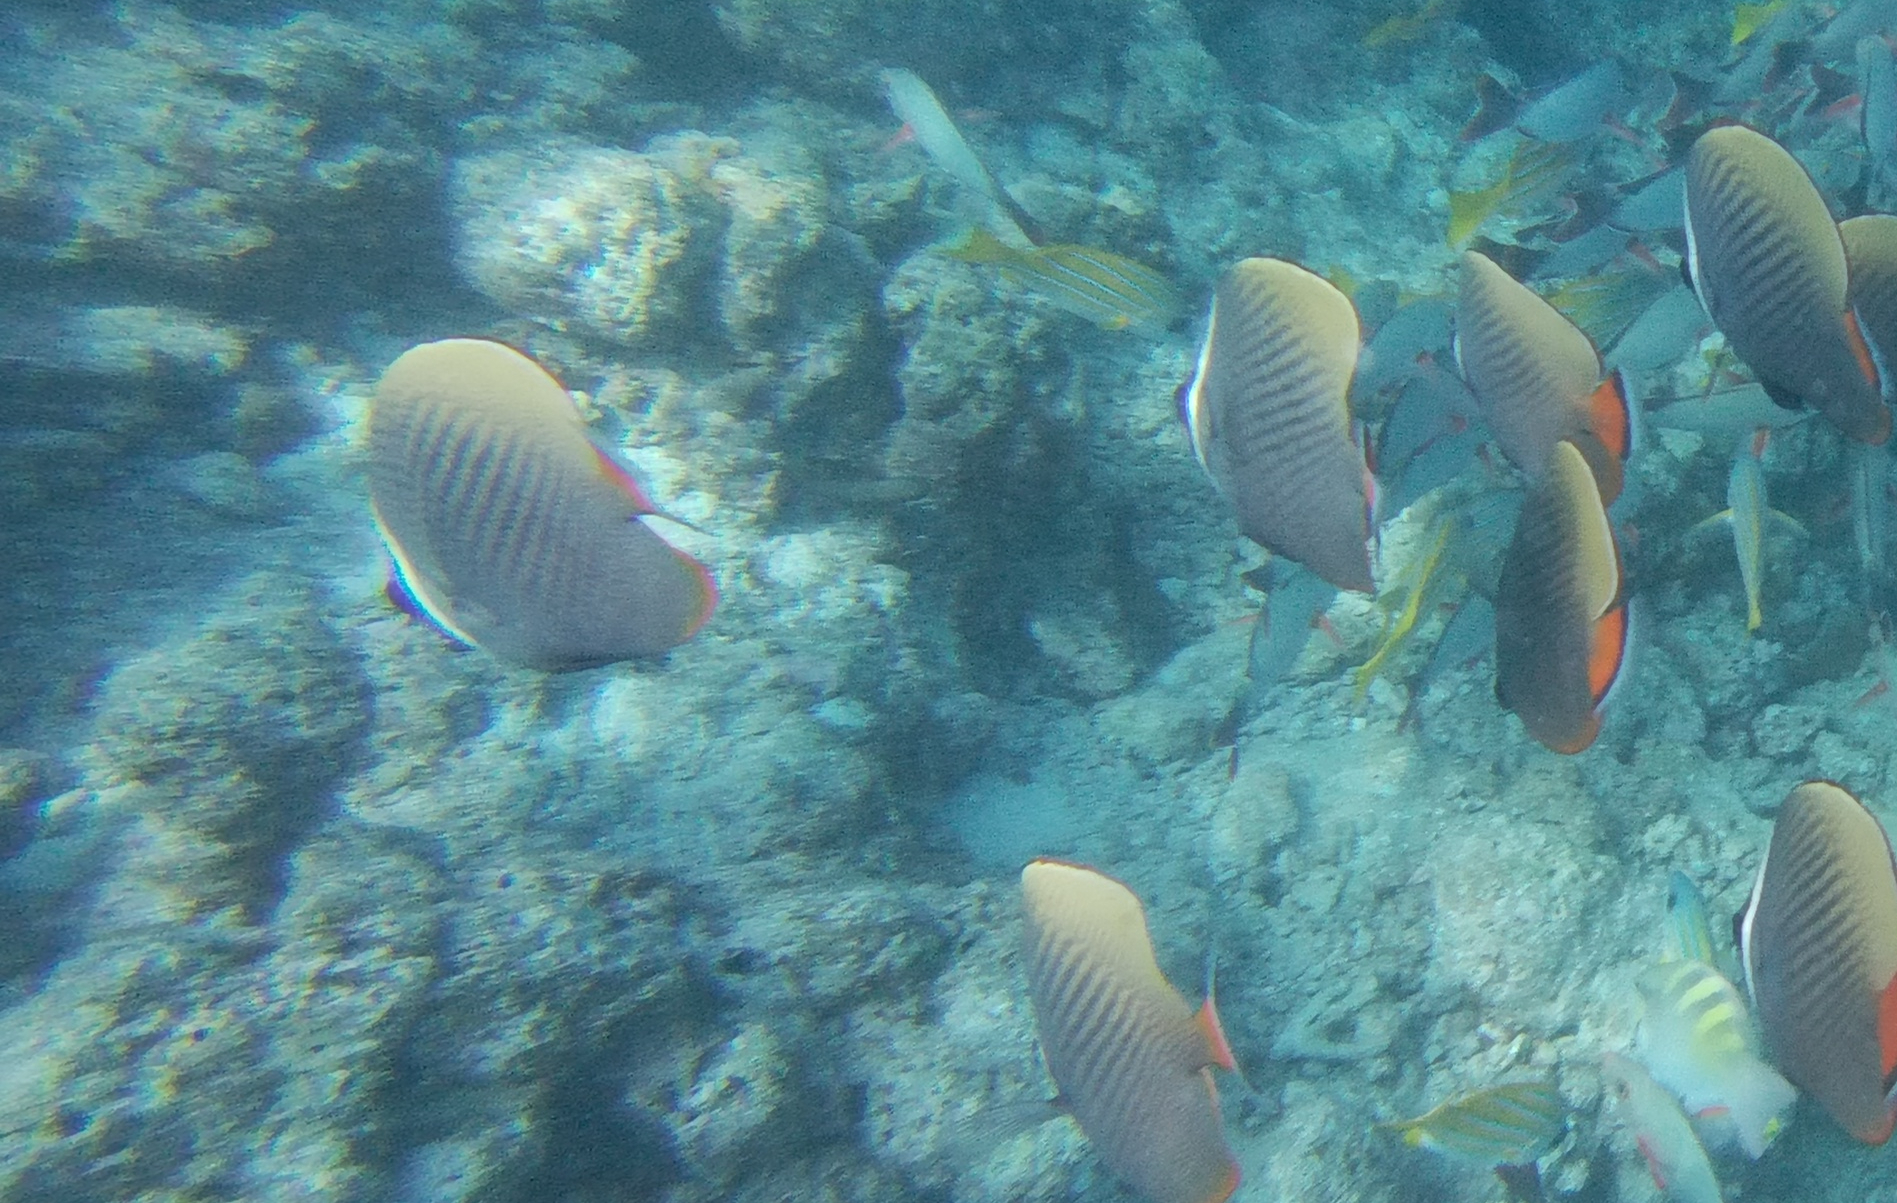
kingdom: Animalia
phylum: Chordata
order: Perciformes
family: Chaetodontidae
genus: Chaetodon
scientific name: Chaetodon collare
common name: Redtail butterflyfish
